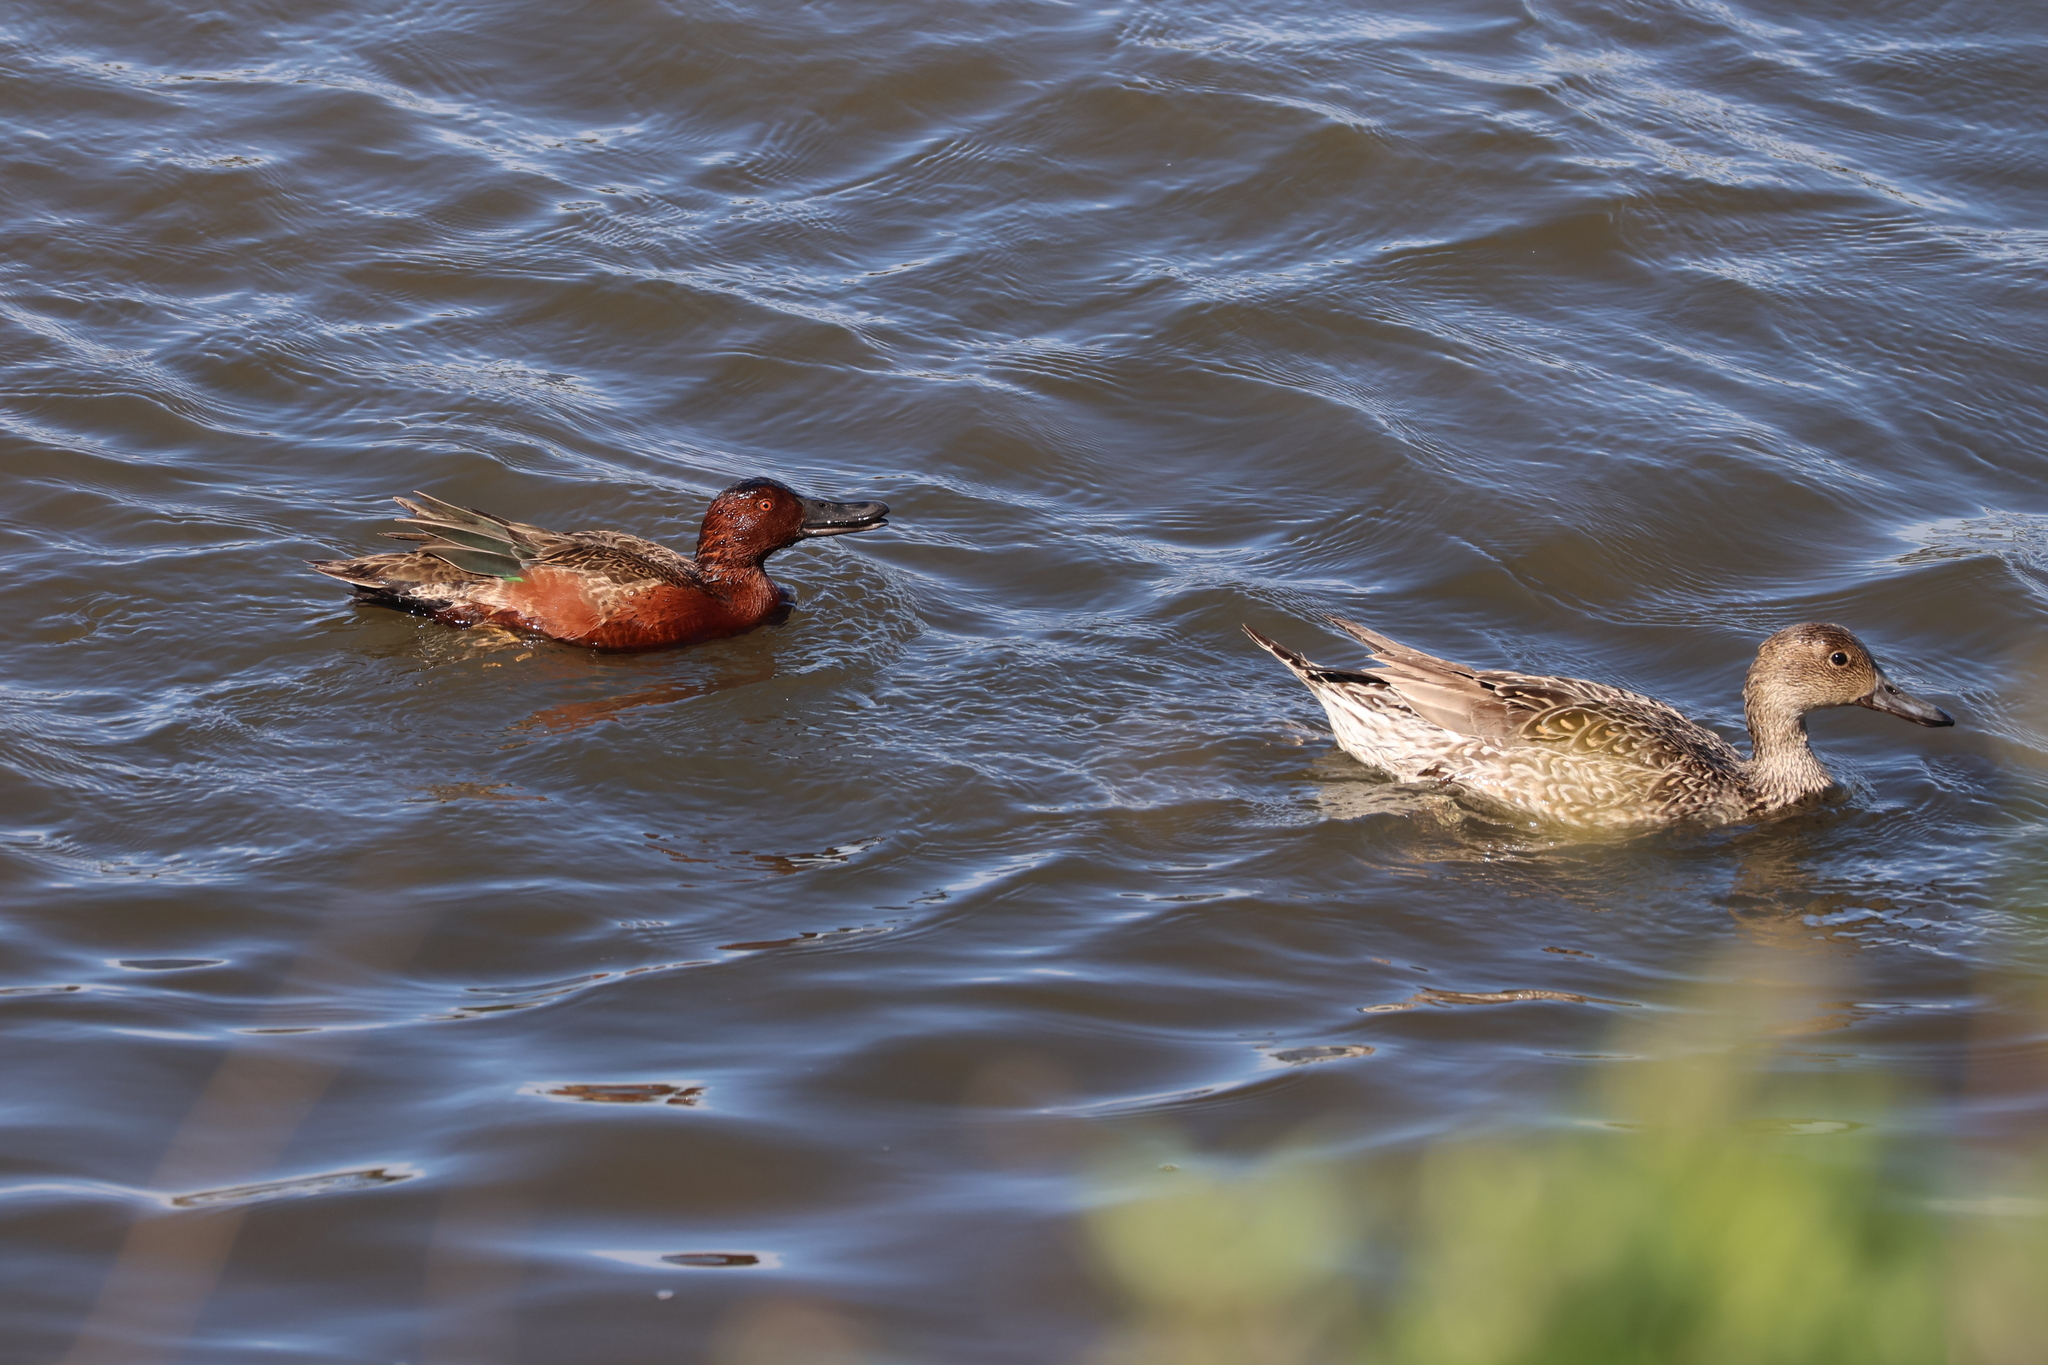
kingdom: Animalia
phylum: Chordata
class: Aves
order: Anseriformes
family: Anatidae
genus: Spatula
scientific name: Spatula cyanoptera
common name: Cinnamon teal
